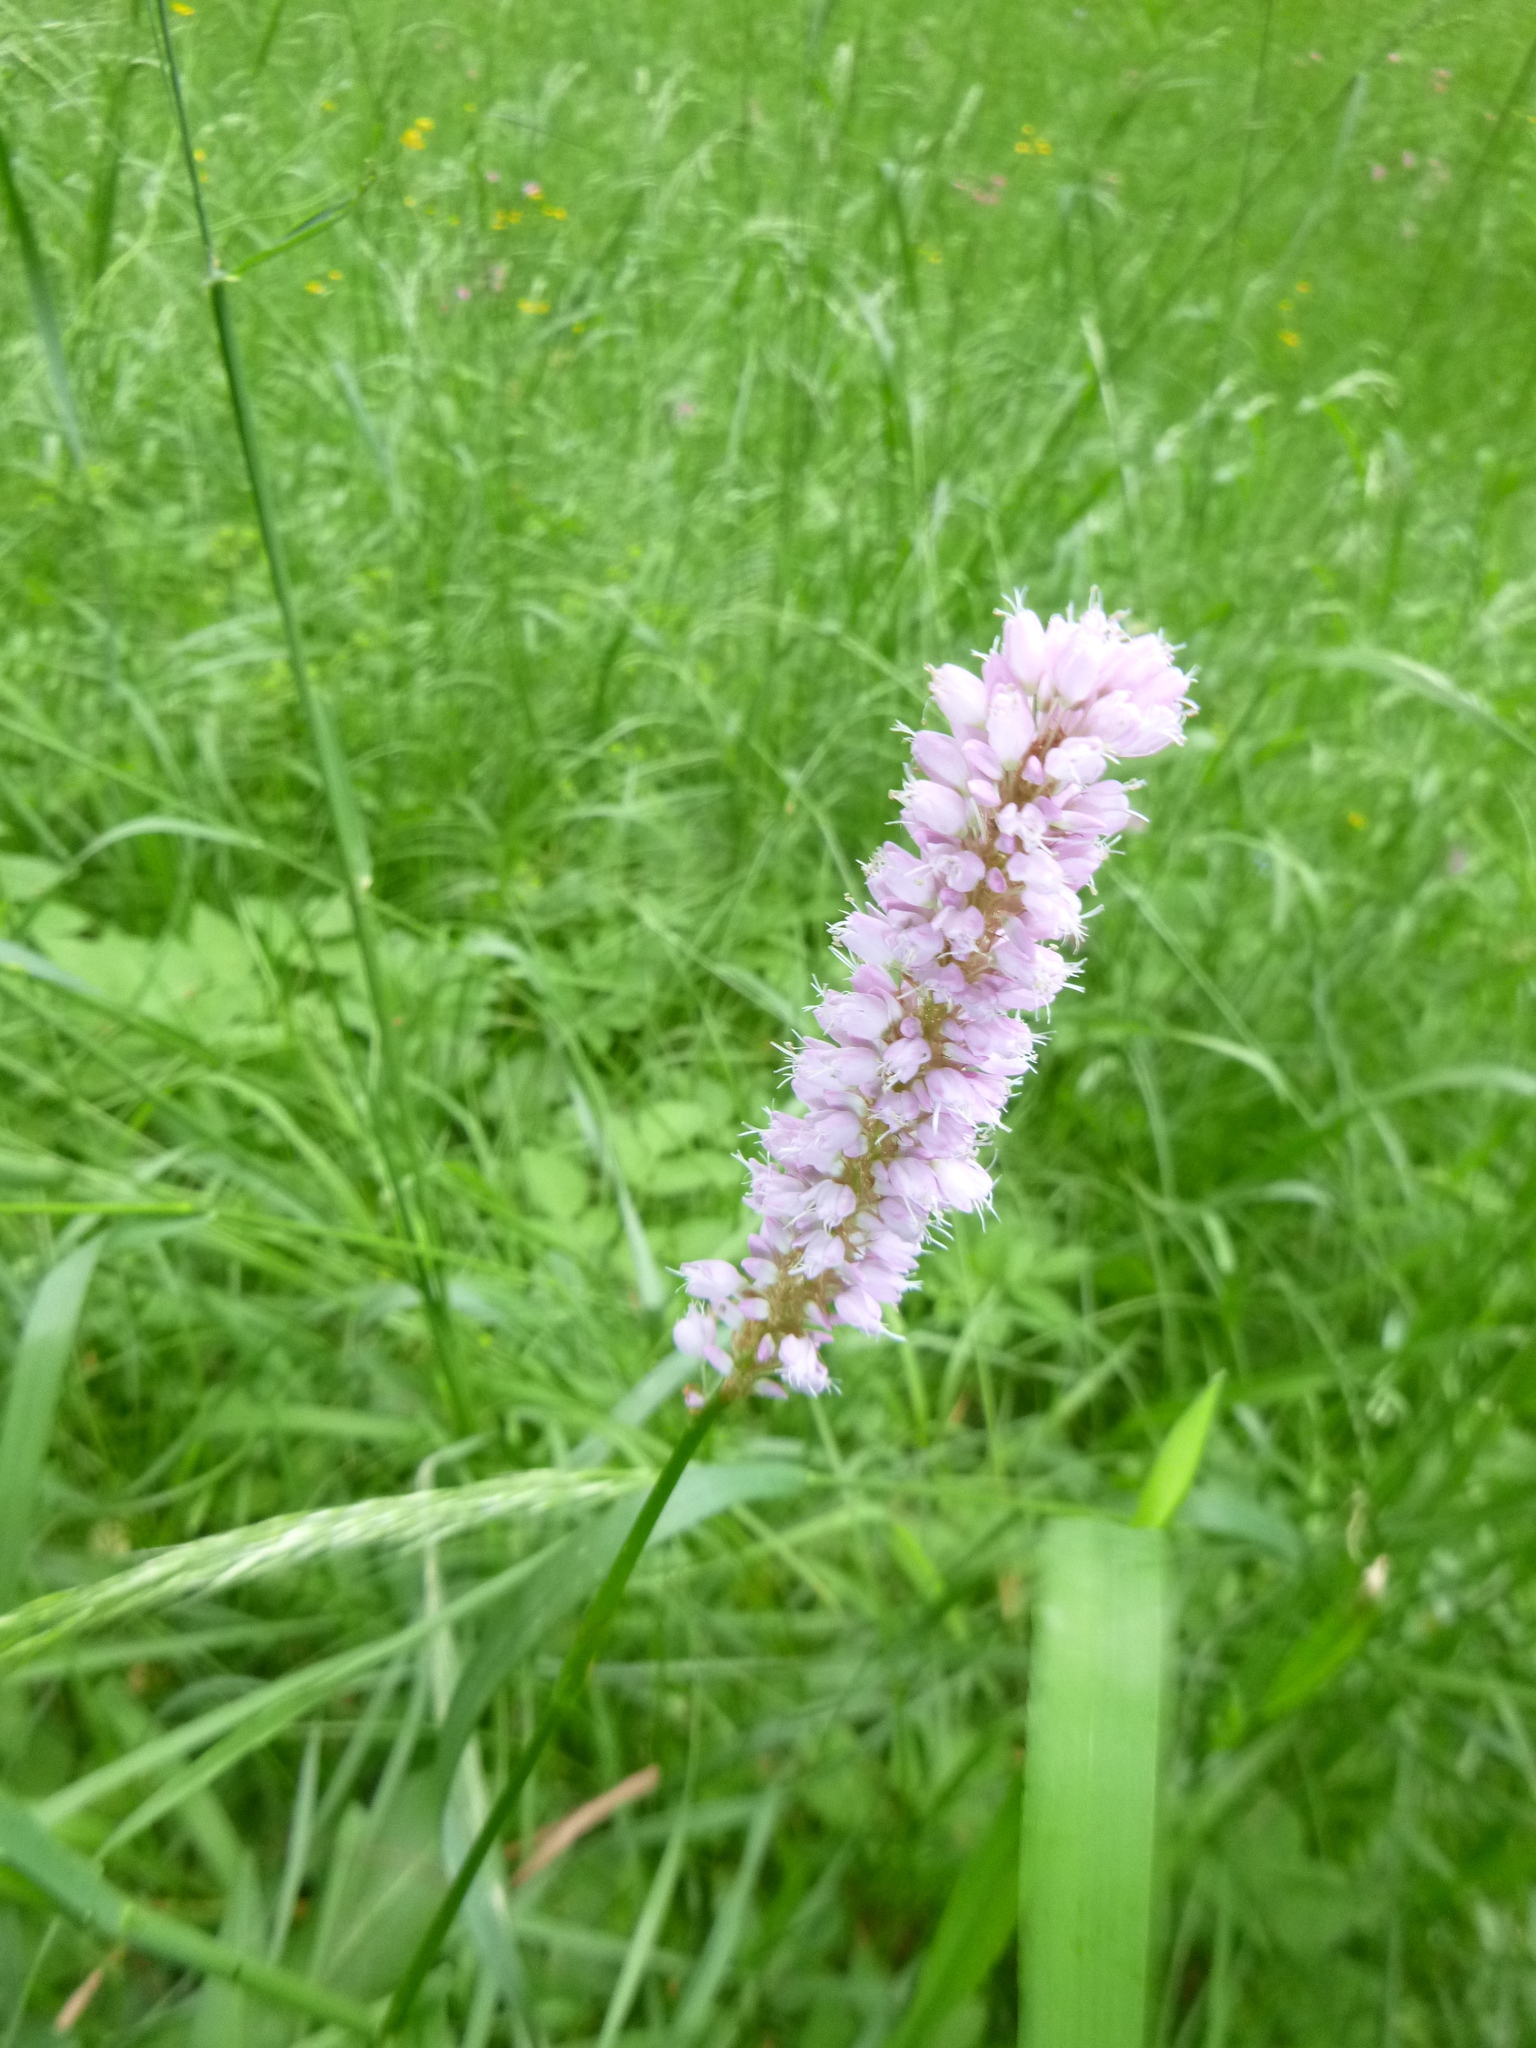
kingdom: Plantae
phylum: Tracheophyta
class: Magnoliopsida
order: Caryophyllales
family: Polygonaceae
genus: Bistorta
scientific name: Bistorta officinalis
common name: Common bistort
